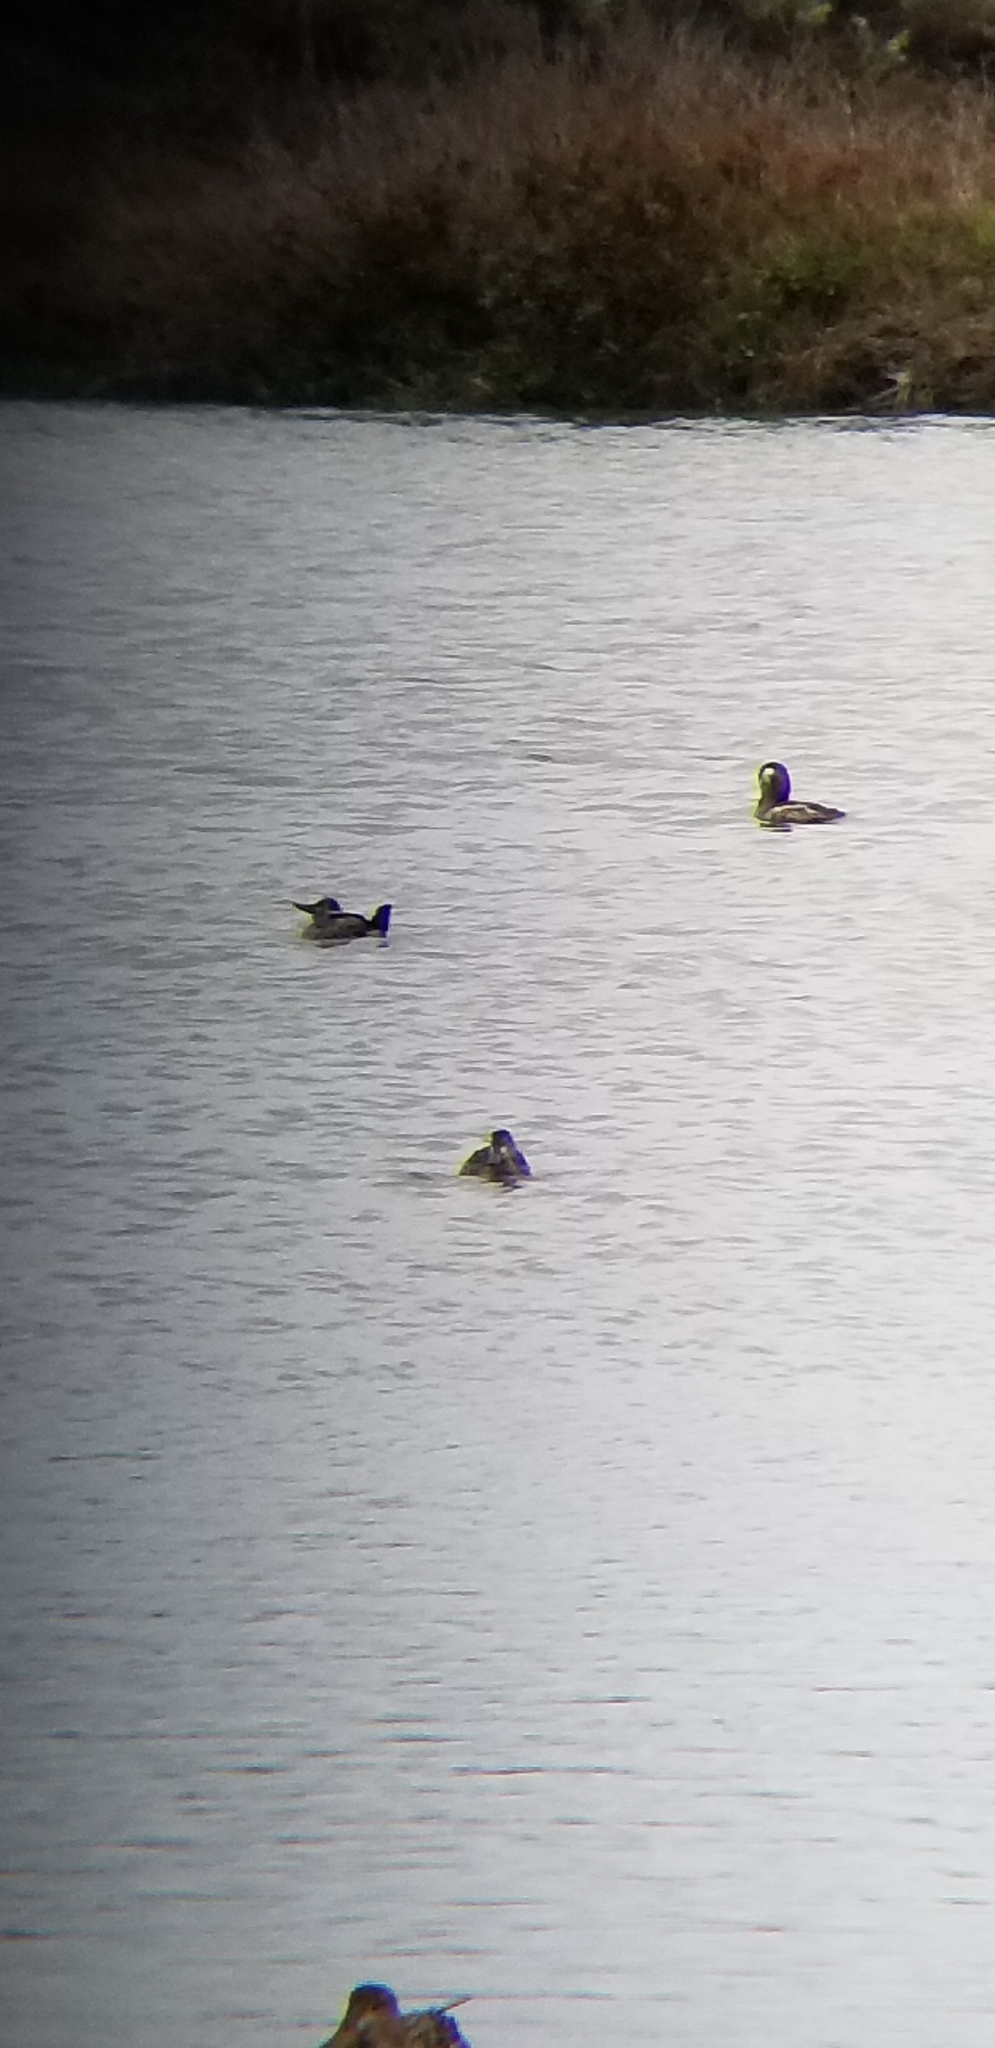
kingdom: Animalia
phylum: Chordata
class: Aves
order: Anseriformes
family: Anatidae
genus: Oxyura
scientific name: Oxyura jamaicensis
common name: Ruddy duck
